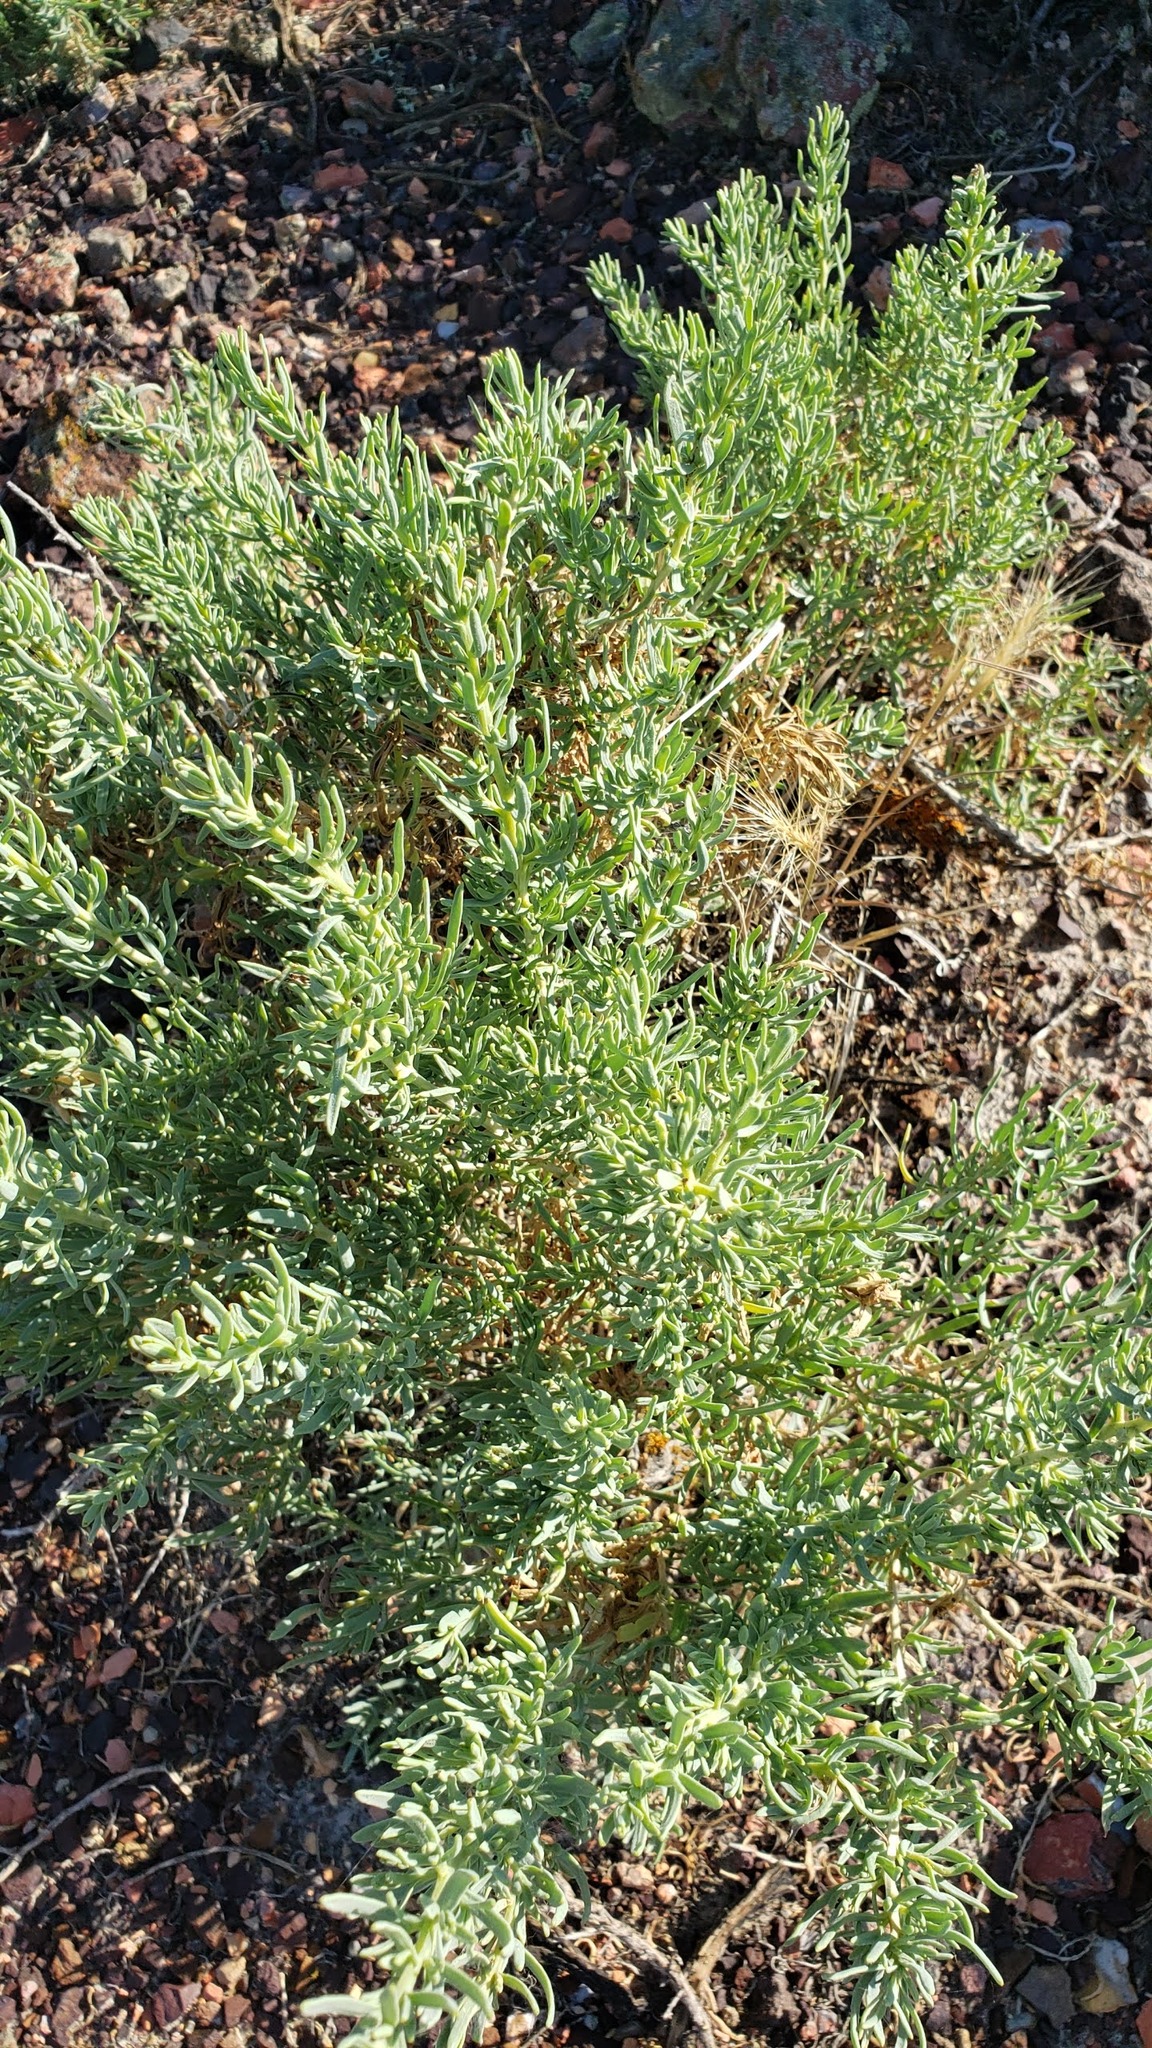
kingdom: Plantae
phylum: Tracheophyta
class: Magnoliopsida
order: Caryophyllales
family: Sarcobataceae
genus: Sarcobatus
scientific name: Sarcobatus vermiculatus
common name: Greasewood
